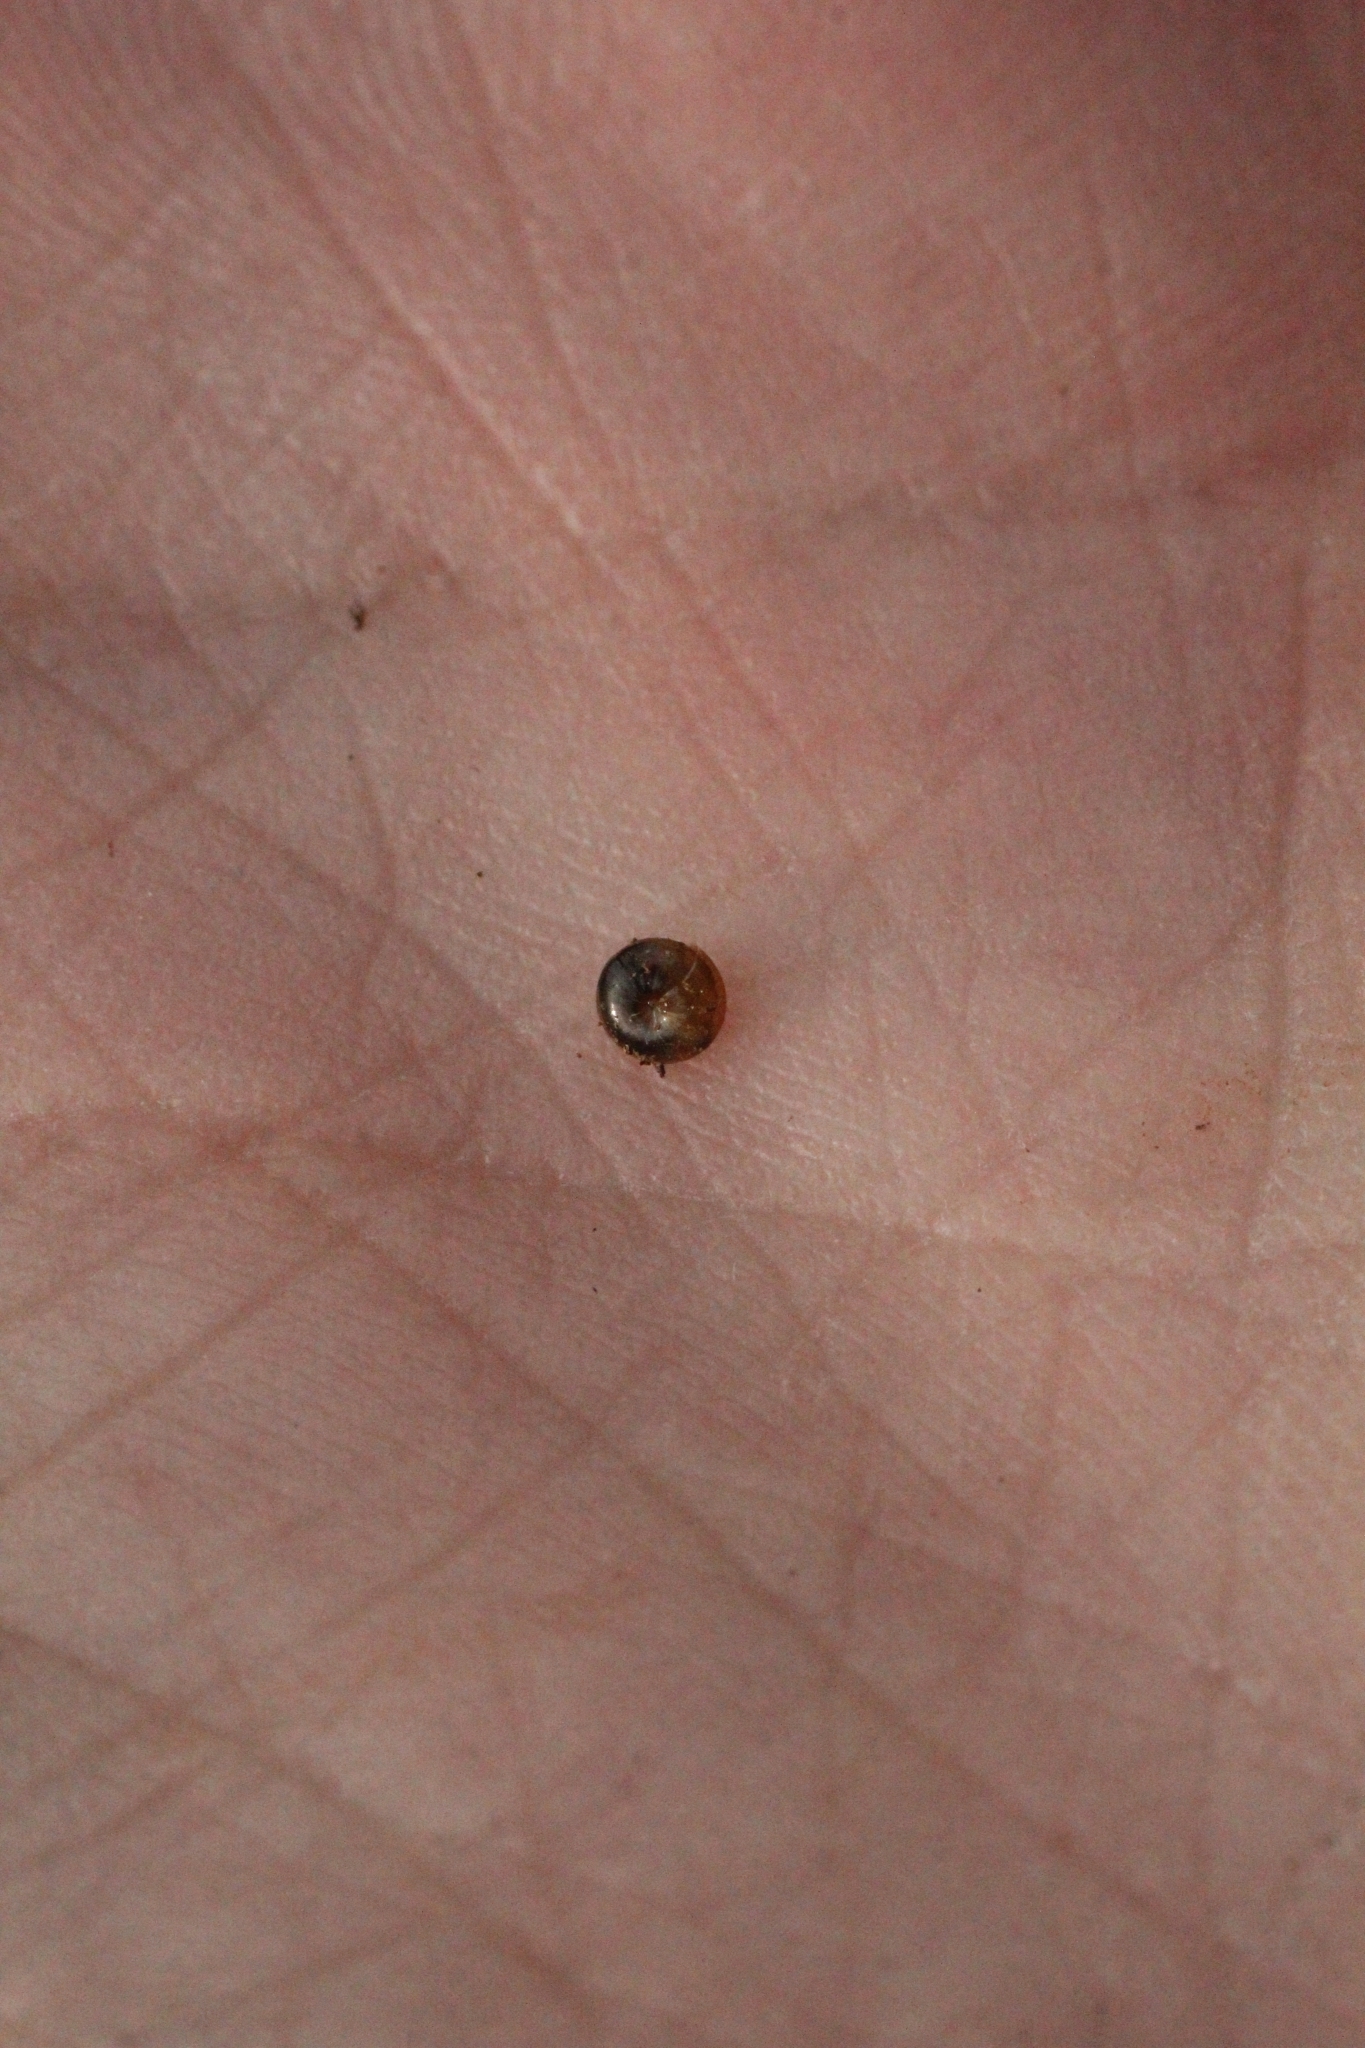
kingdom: Animalia
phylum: Mollusca
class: Gastropoda
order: Stylommatophora
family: Euconulidae
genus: Euconulus
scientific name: Euconulus fulvus
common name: Tawny glass snail
